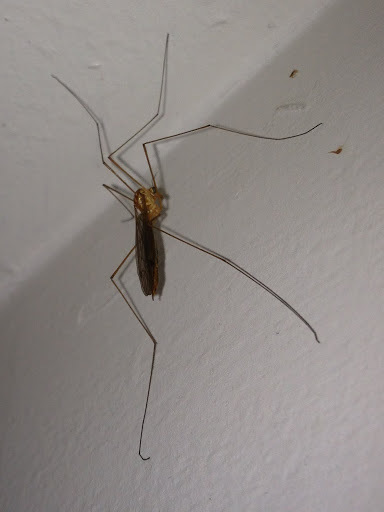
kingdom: Animalia
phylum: Arthropoda
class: Insecta
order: Diptera
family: Tipulidae
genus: Nephrotoma
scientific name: Nephrotoma
